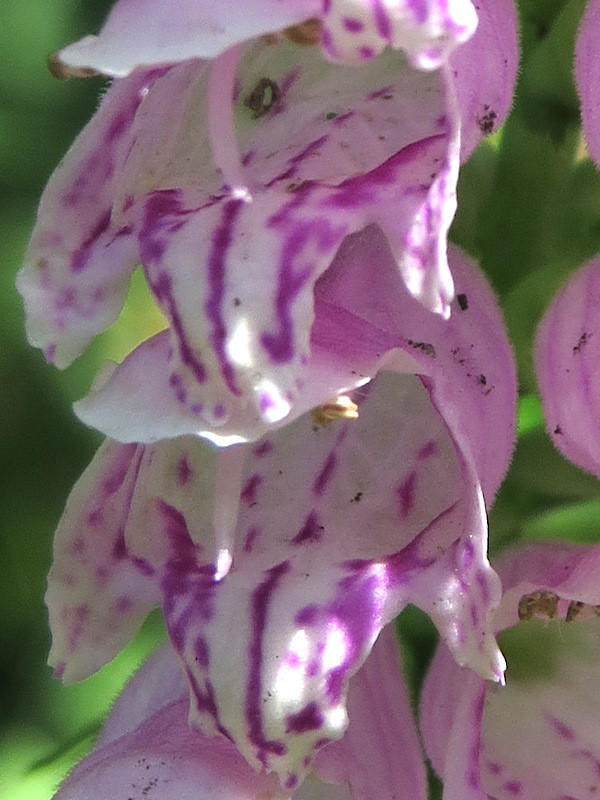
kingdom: Plantae
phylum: Tracheophyta
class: Magnoliopsida
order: Lamiales
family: Lamiaceae
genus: Physostegia
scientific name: Physostegia virginiana
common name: Obedient-plant
